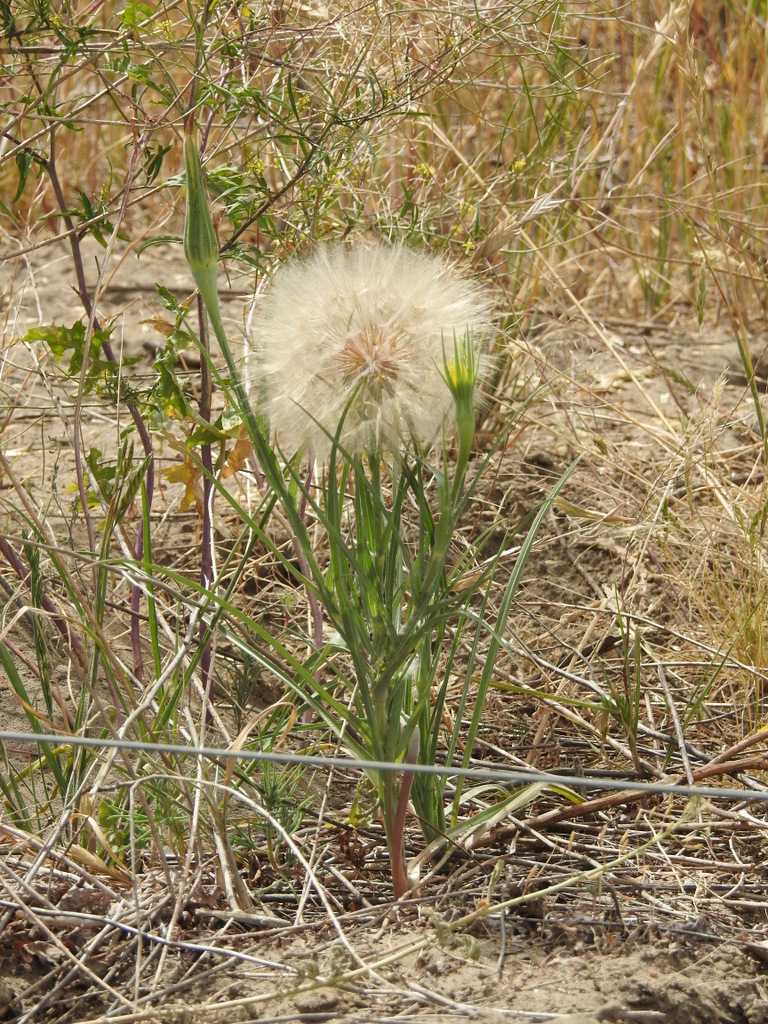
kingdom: Plantae
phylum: Tracheophyta
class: Magnoliopsida
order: Asterales
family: Asteraceae
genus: Tragopogon
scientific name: Tragopogon dubius
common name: Yellow salsify
